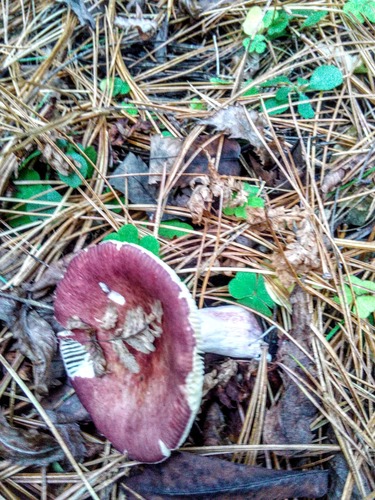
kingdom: Fungi
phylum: Basidiomycota
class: Agaricomycetes
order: Russulales
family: Russulaceae
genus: Russula
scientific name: Russula
